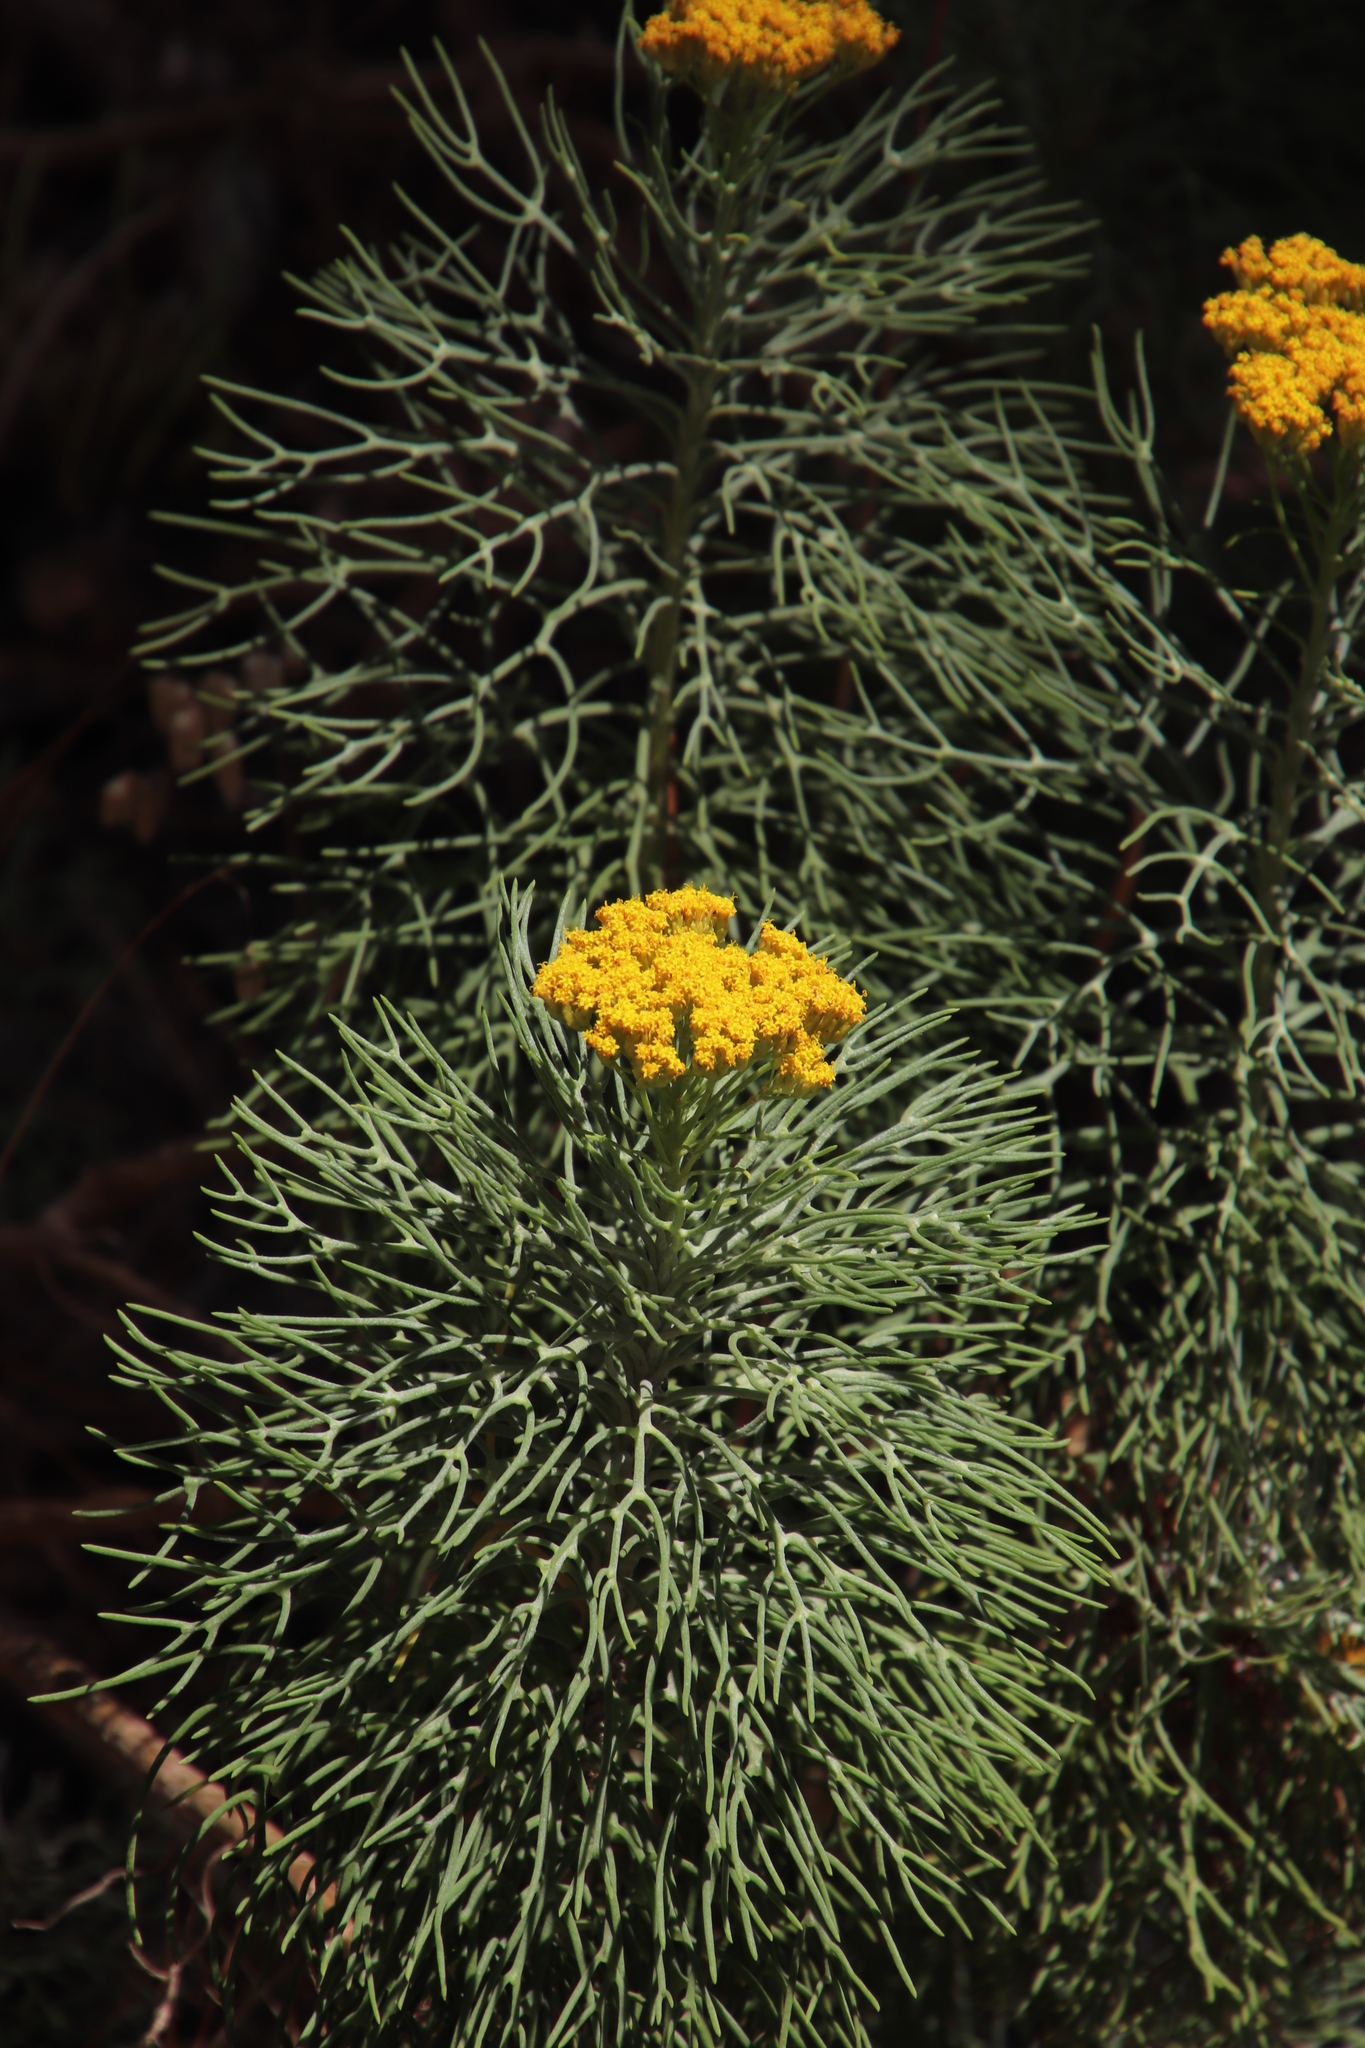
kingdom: Plantae
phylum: Tracheophyta
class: Magnoliopsida
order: Asterales
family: Asteraceae
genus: Hymenolepis
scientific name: Hymenolepis crithmifolia
